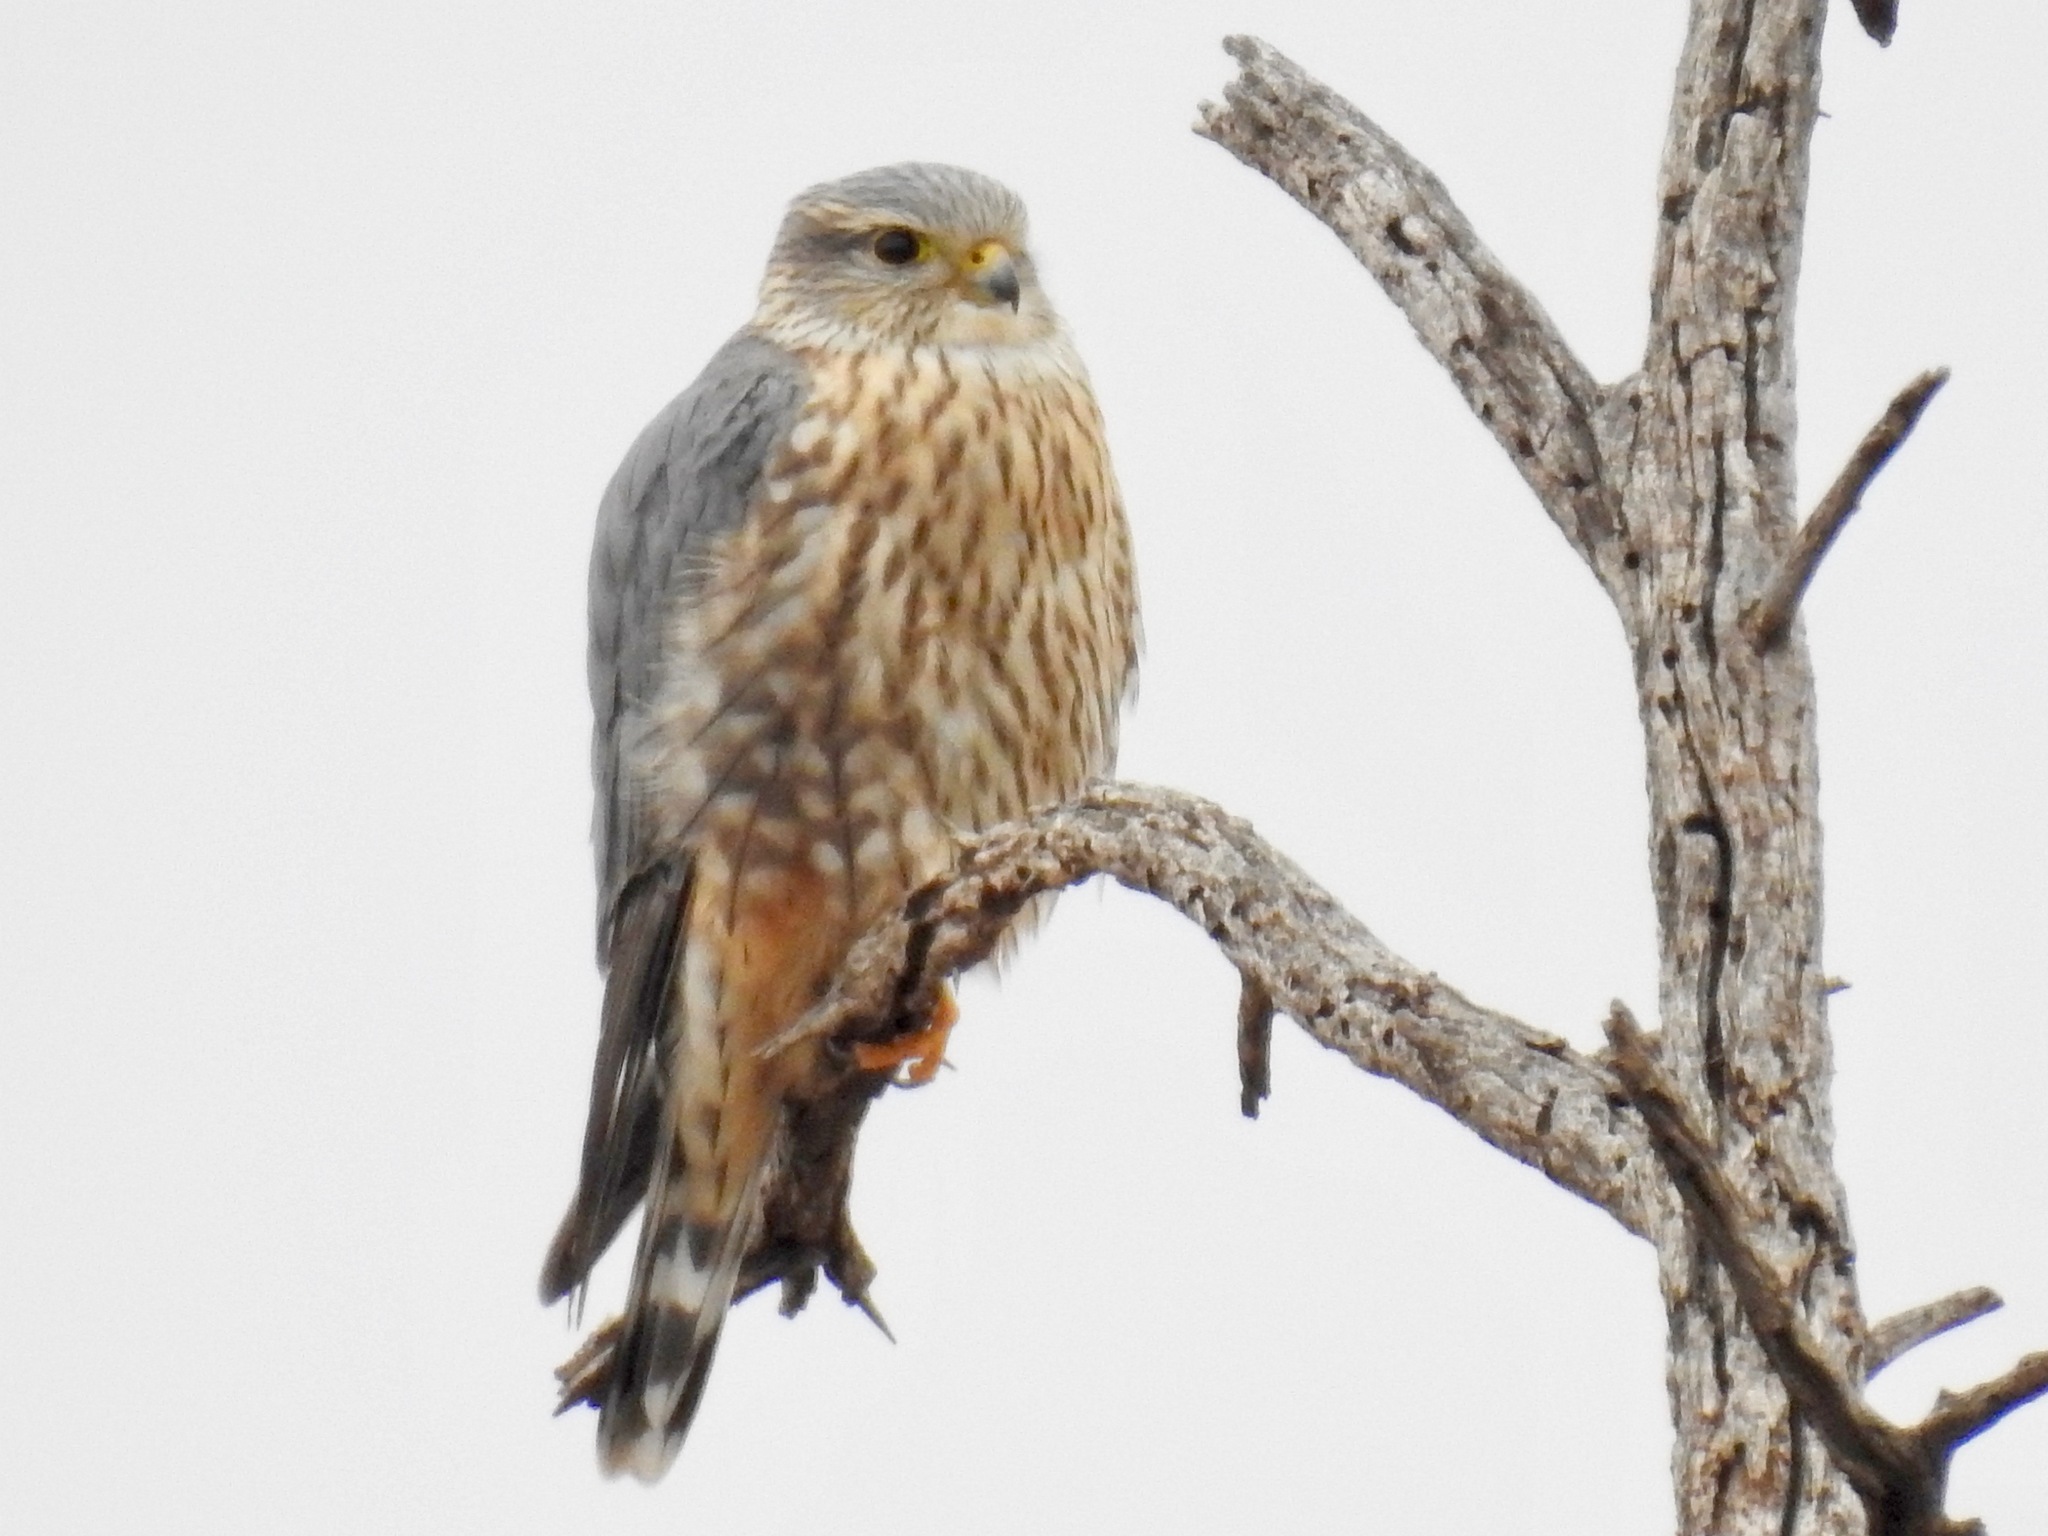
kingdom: Animalia
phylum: Chordata
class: Aves
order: Falconiformes
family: Falconidae
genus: Falco
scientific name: Falco columbarius
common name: Merlin
